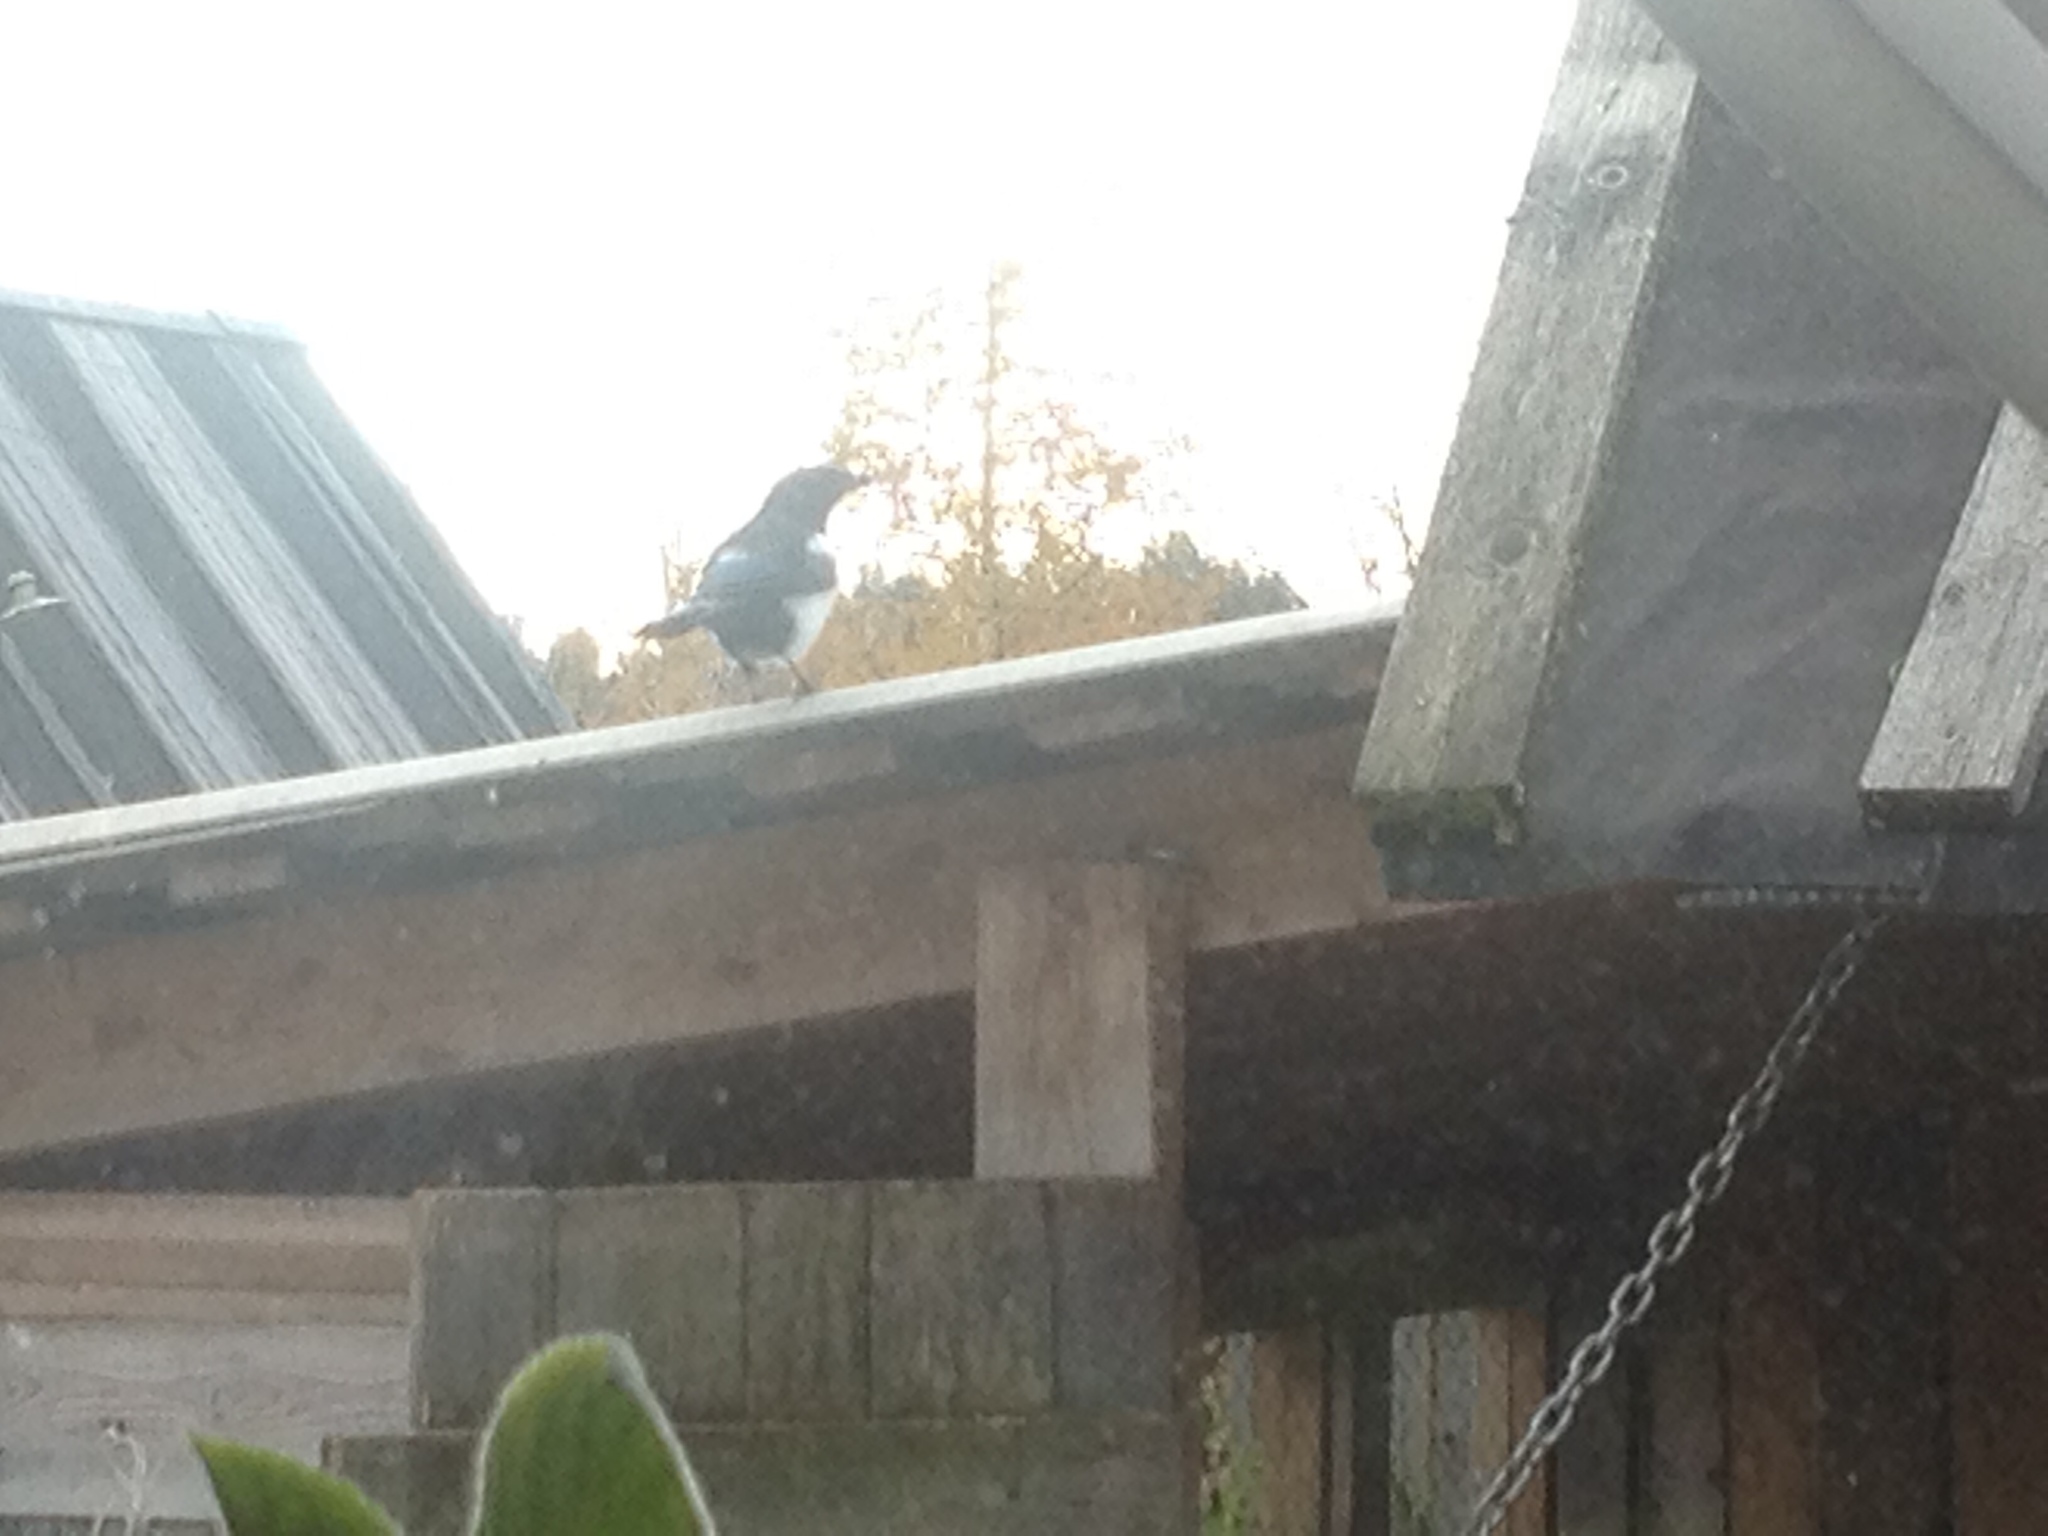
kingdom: Animalia
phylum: Chordata
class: Aves
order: Passeriformes
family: Corvidae
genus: Pica
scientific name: Pica pica
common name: Eurasian magpie
